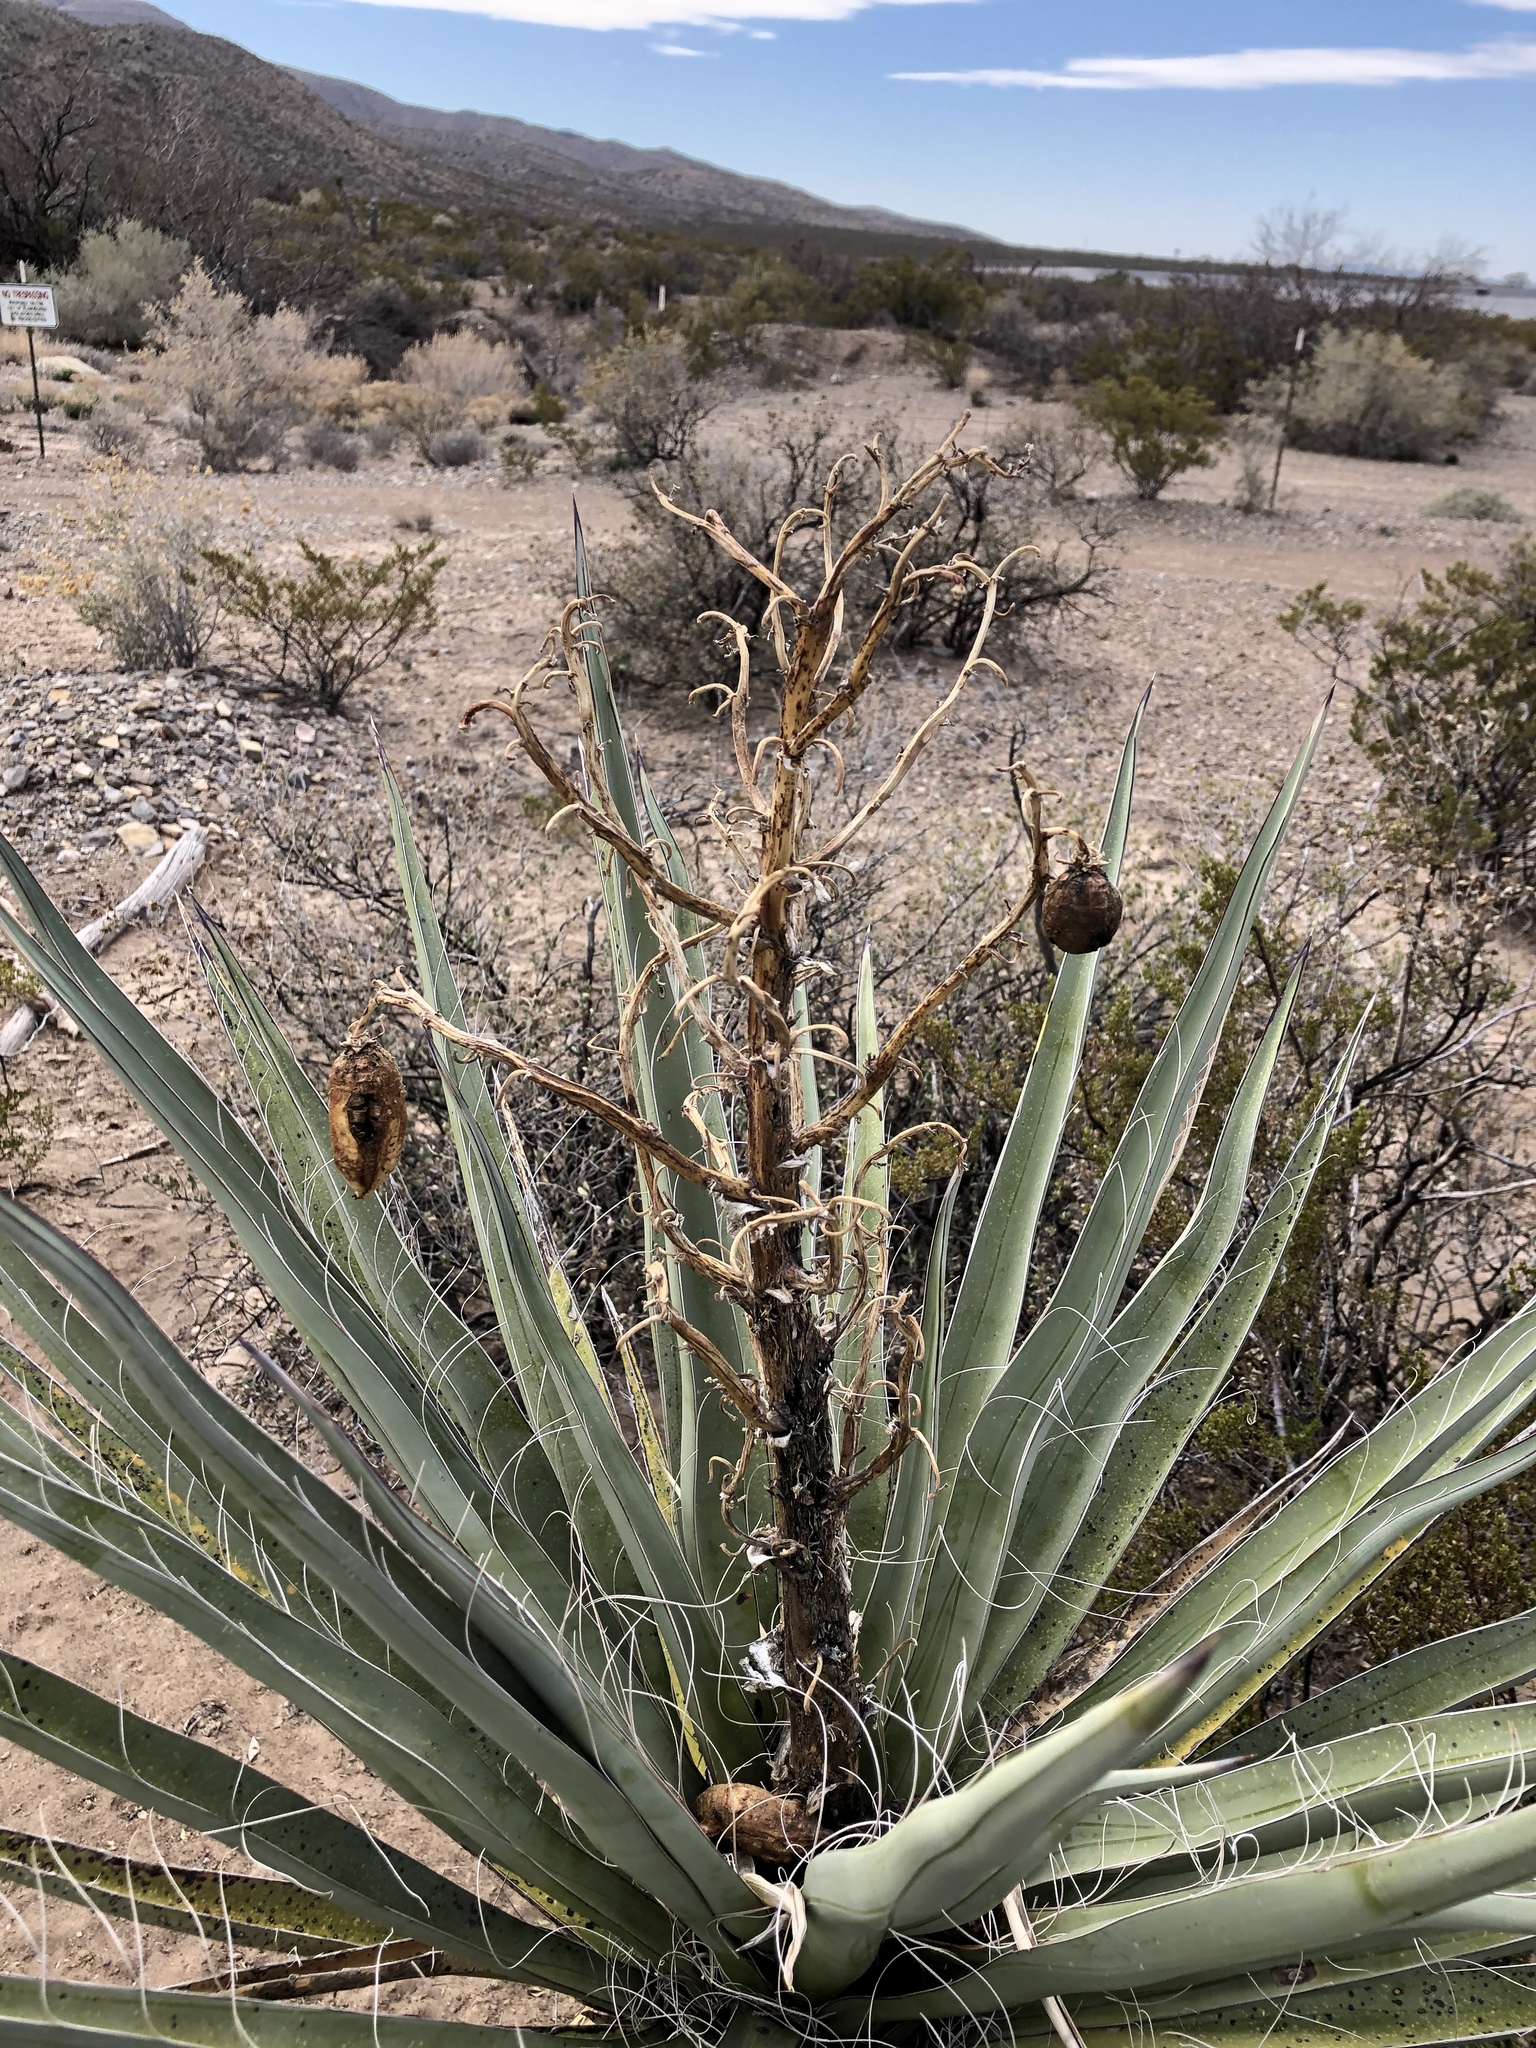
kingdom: Plantae
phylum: Tracheophyta
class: Liliopsida
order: Asparagales
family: Asparagaceae
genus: Yucca
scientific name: Yucca baccata
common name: Banana yucca
